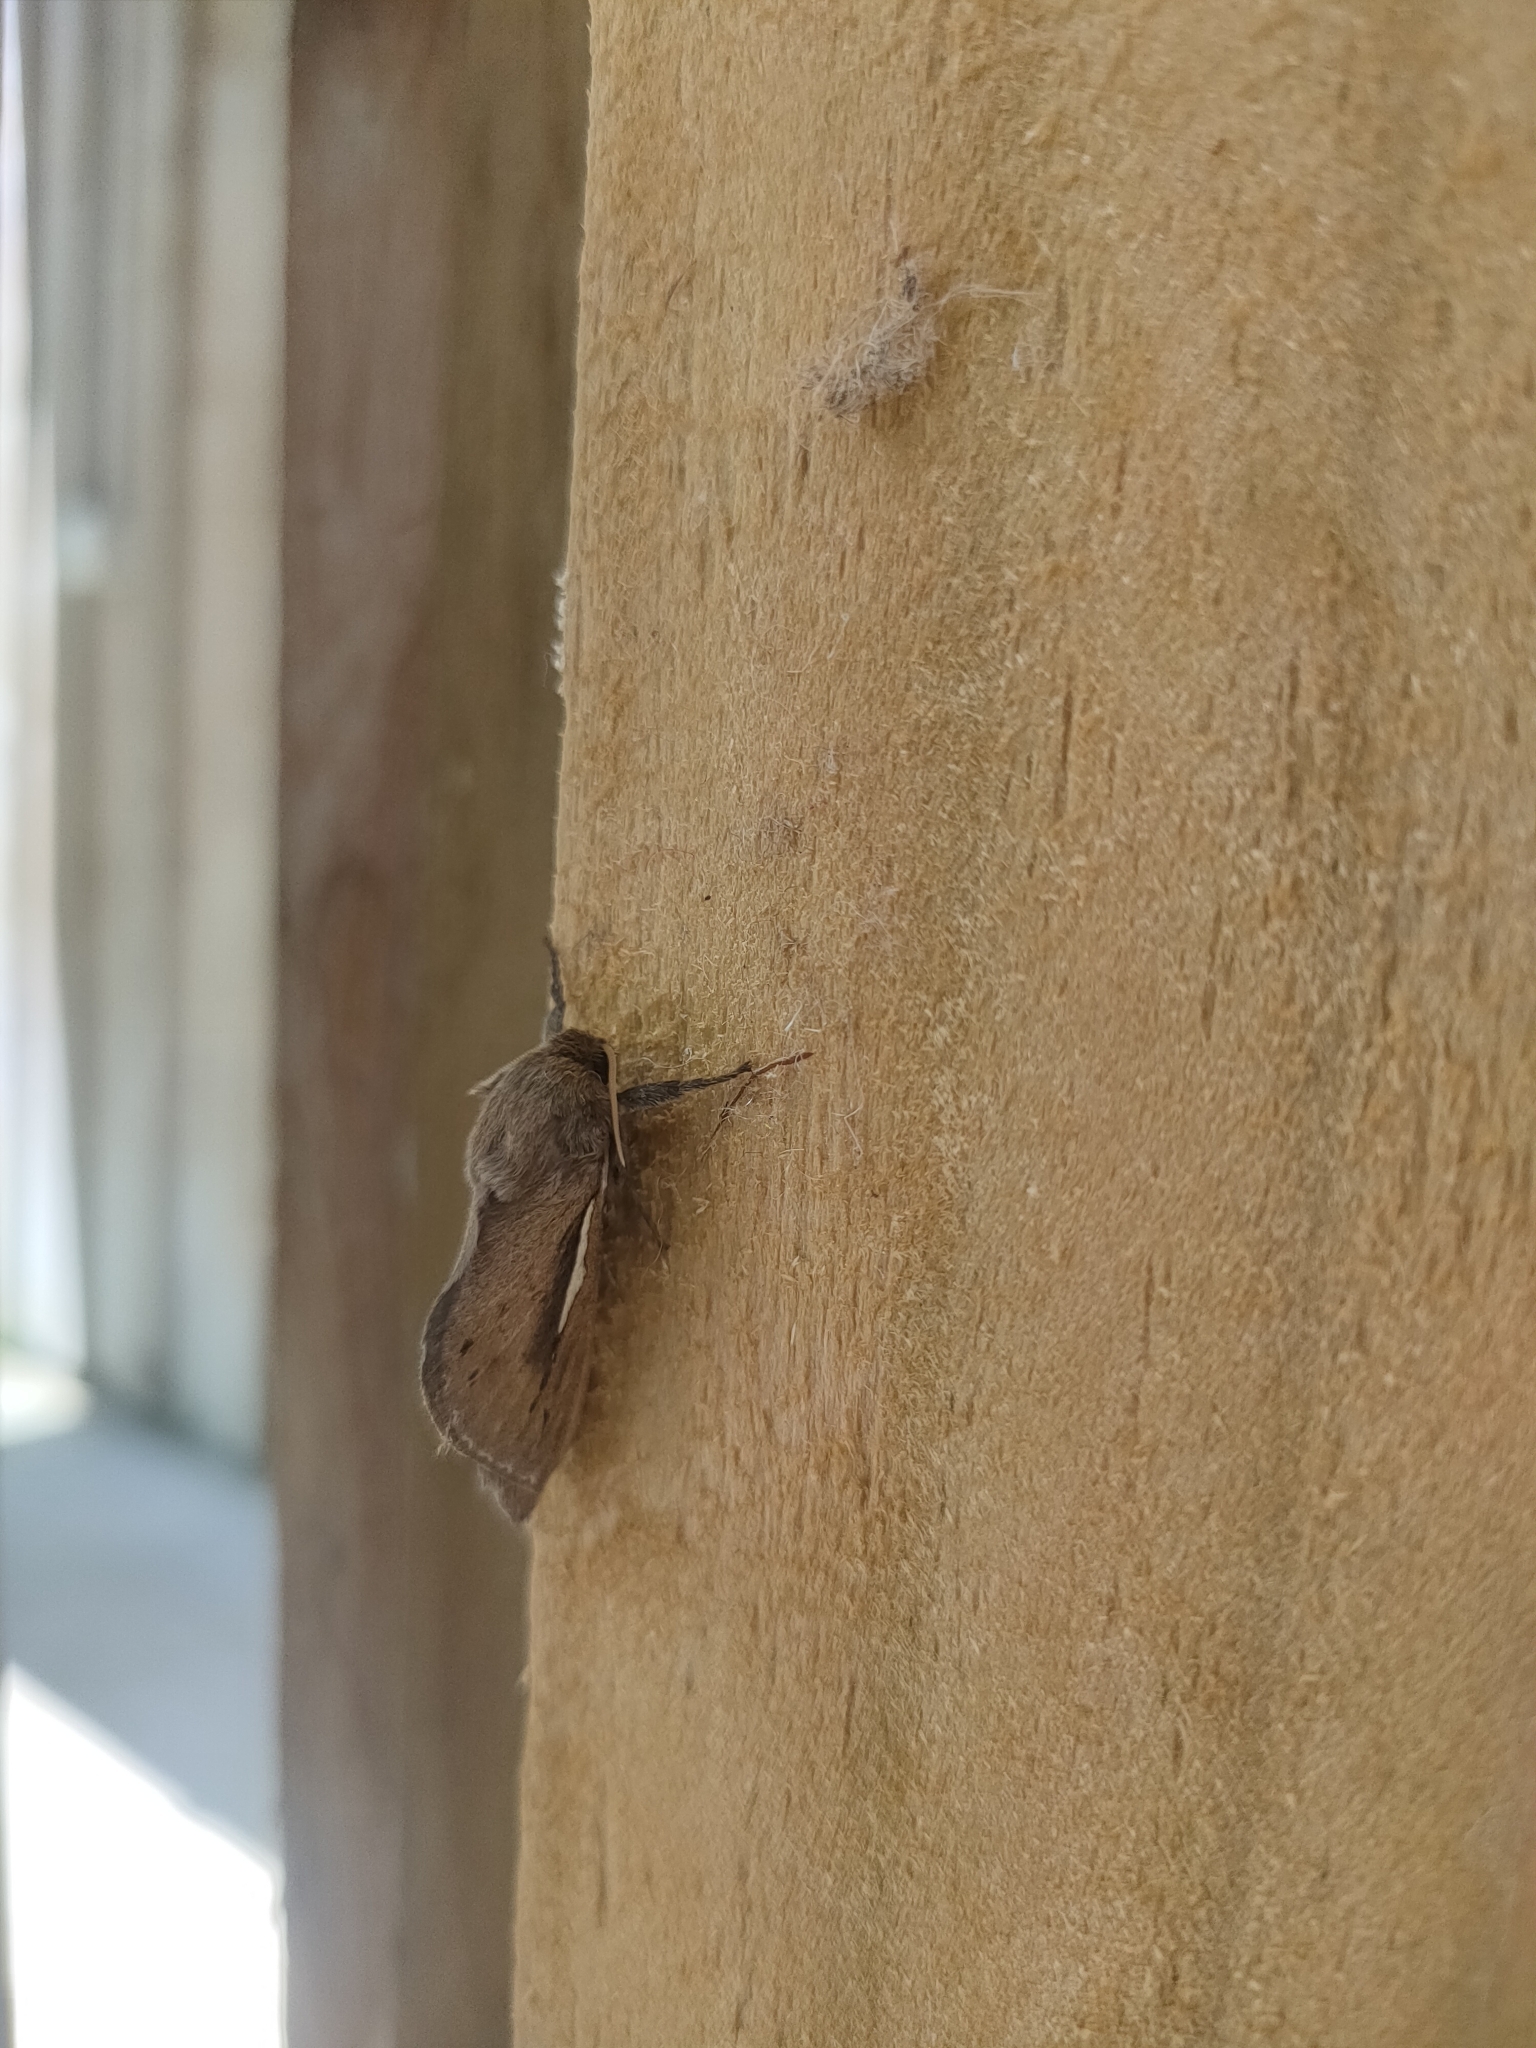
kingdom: Animalia
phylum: Arthropoda
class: Insecta
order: Lepidoptera
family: Hepialidae
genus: Wiseana
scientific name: Wiseana umbraculatus
